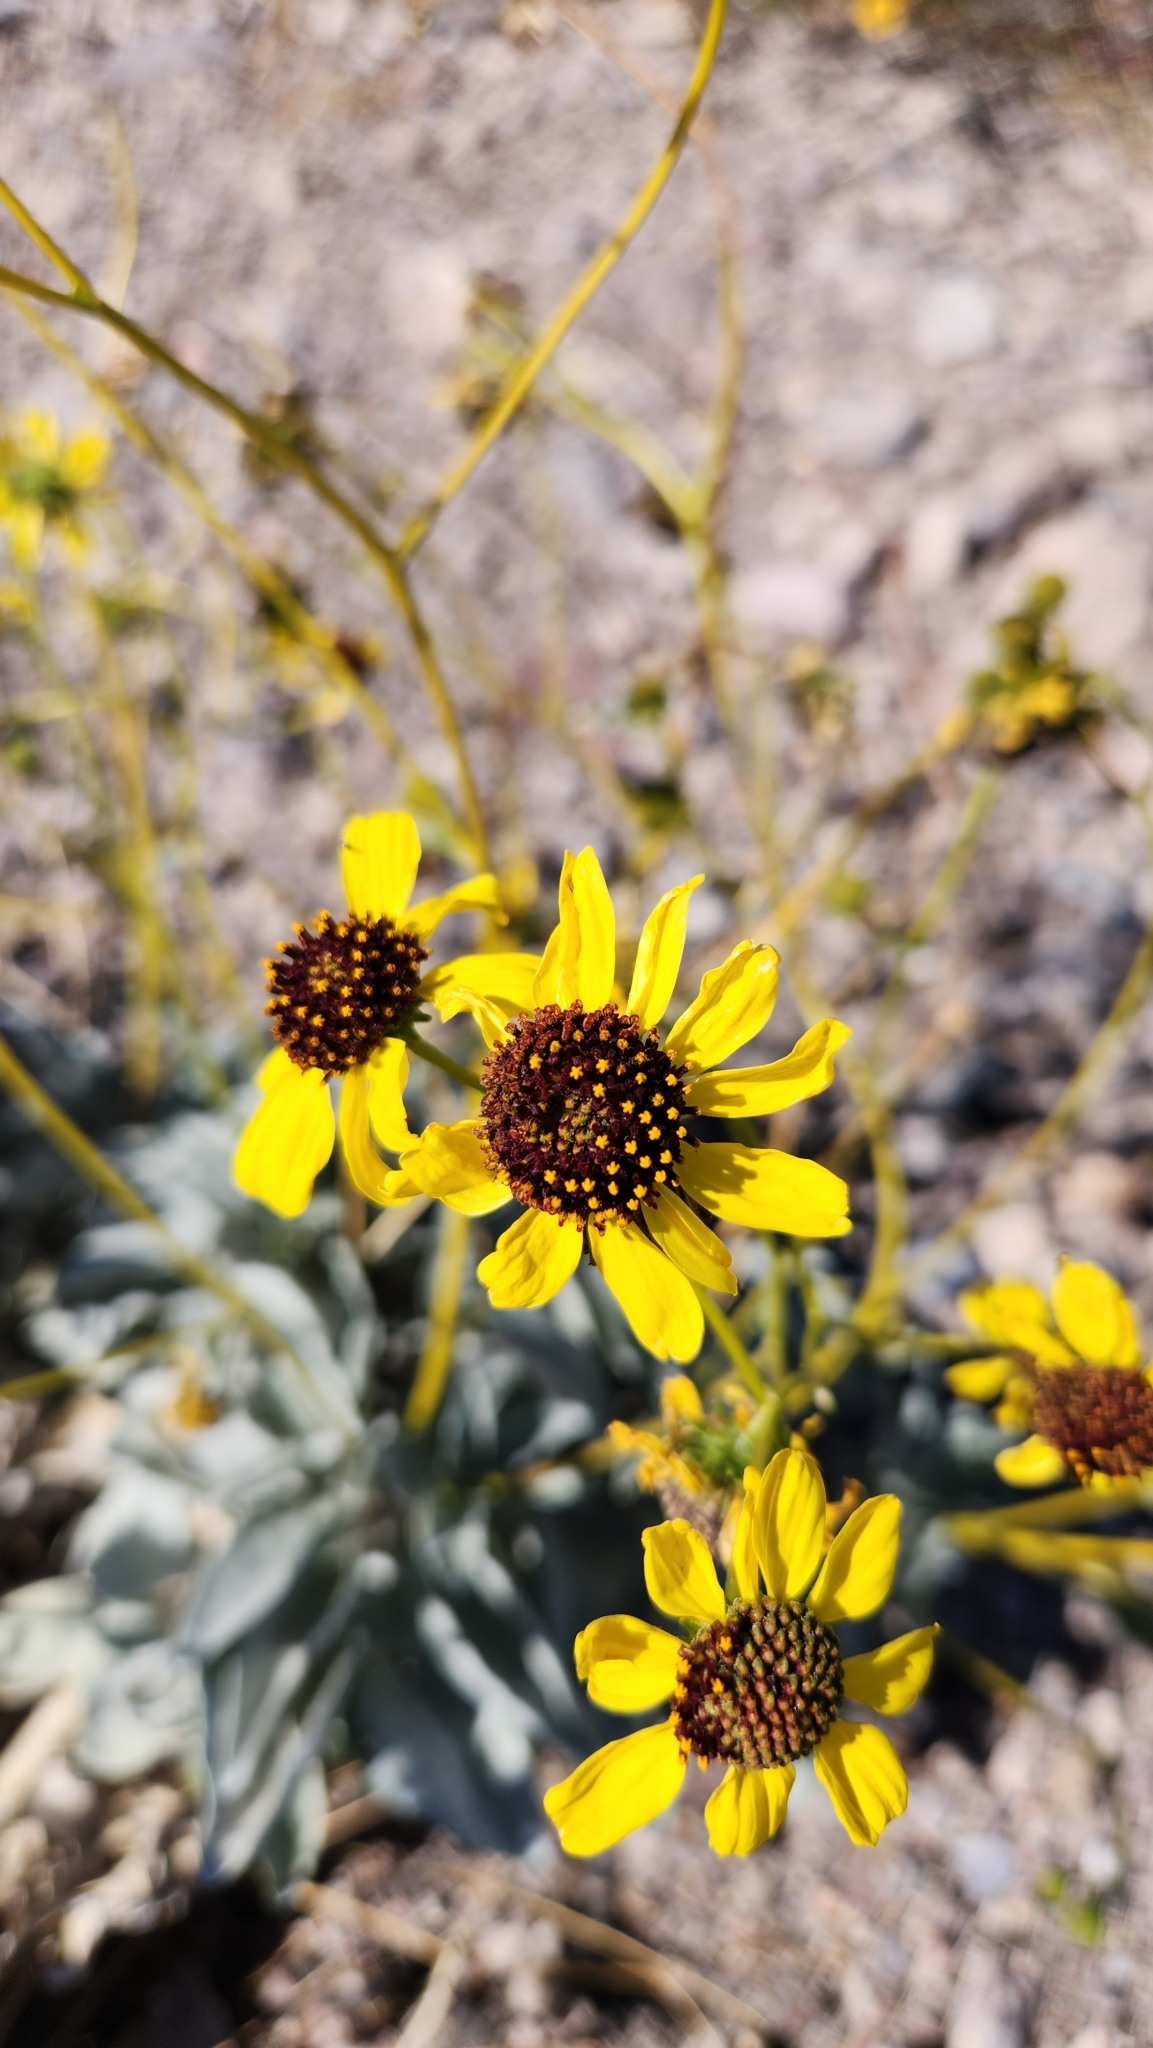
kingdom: Plantae
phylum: Tracheophyta
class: Magnoliopsida
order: Asterales
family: Asteraceae
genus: Encelia
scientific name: Encelia farinosa
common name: Brittlebush
